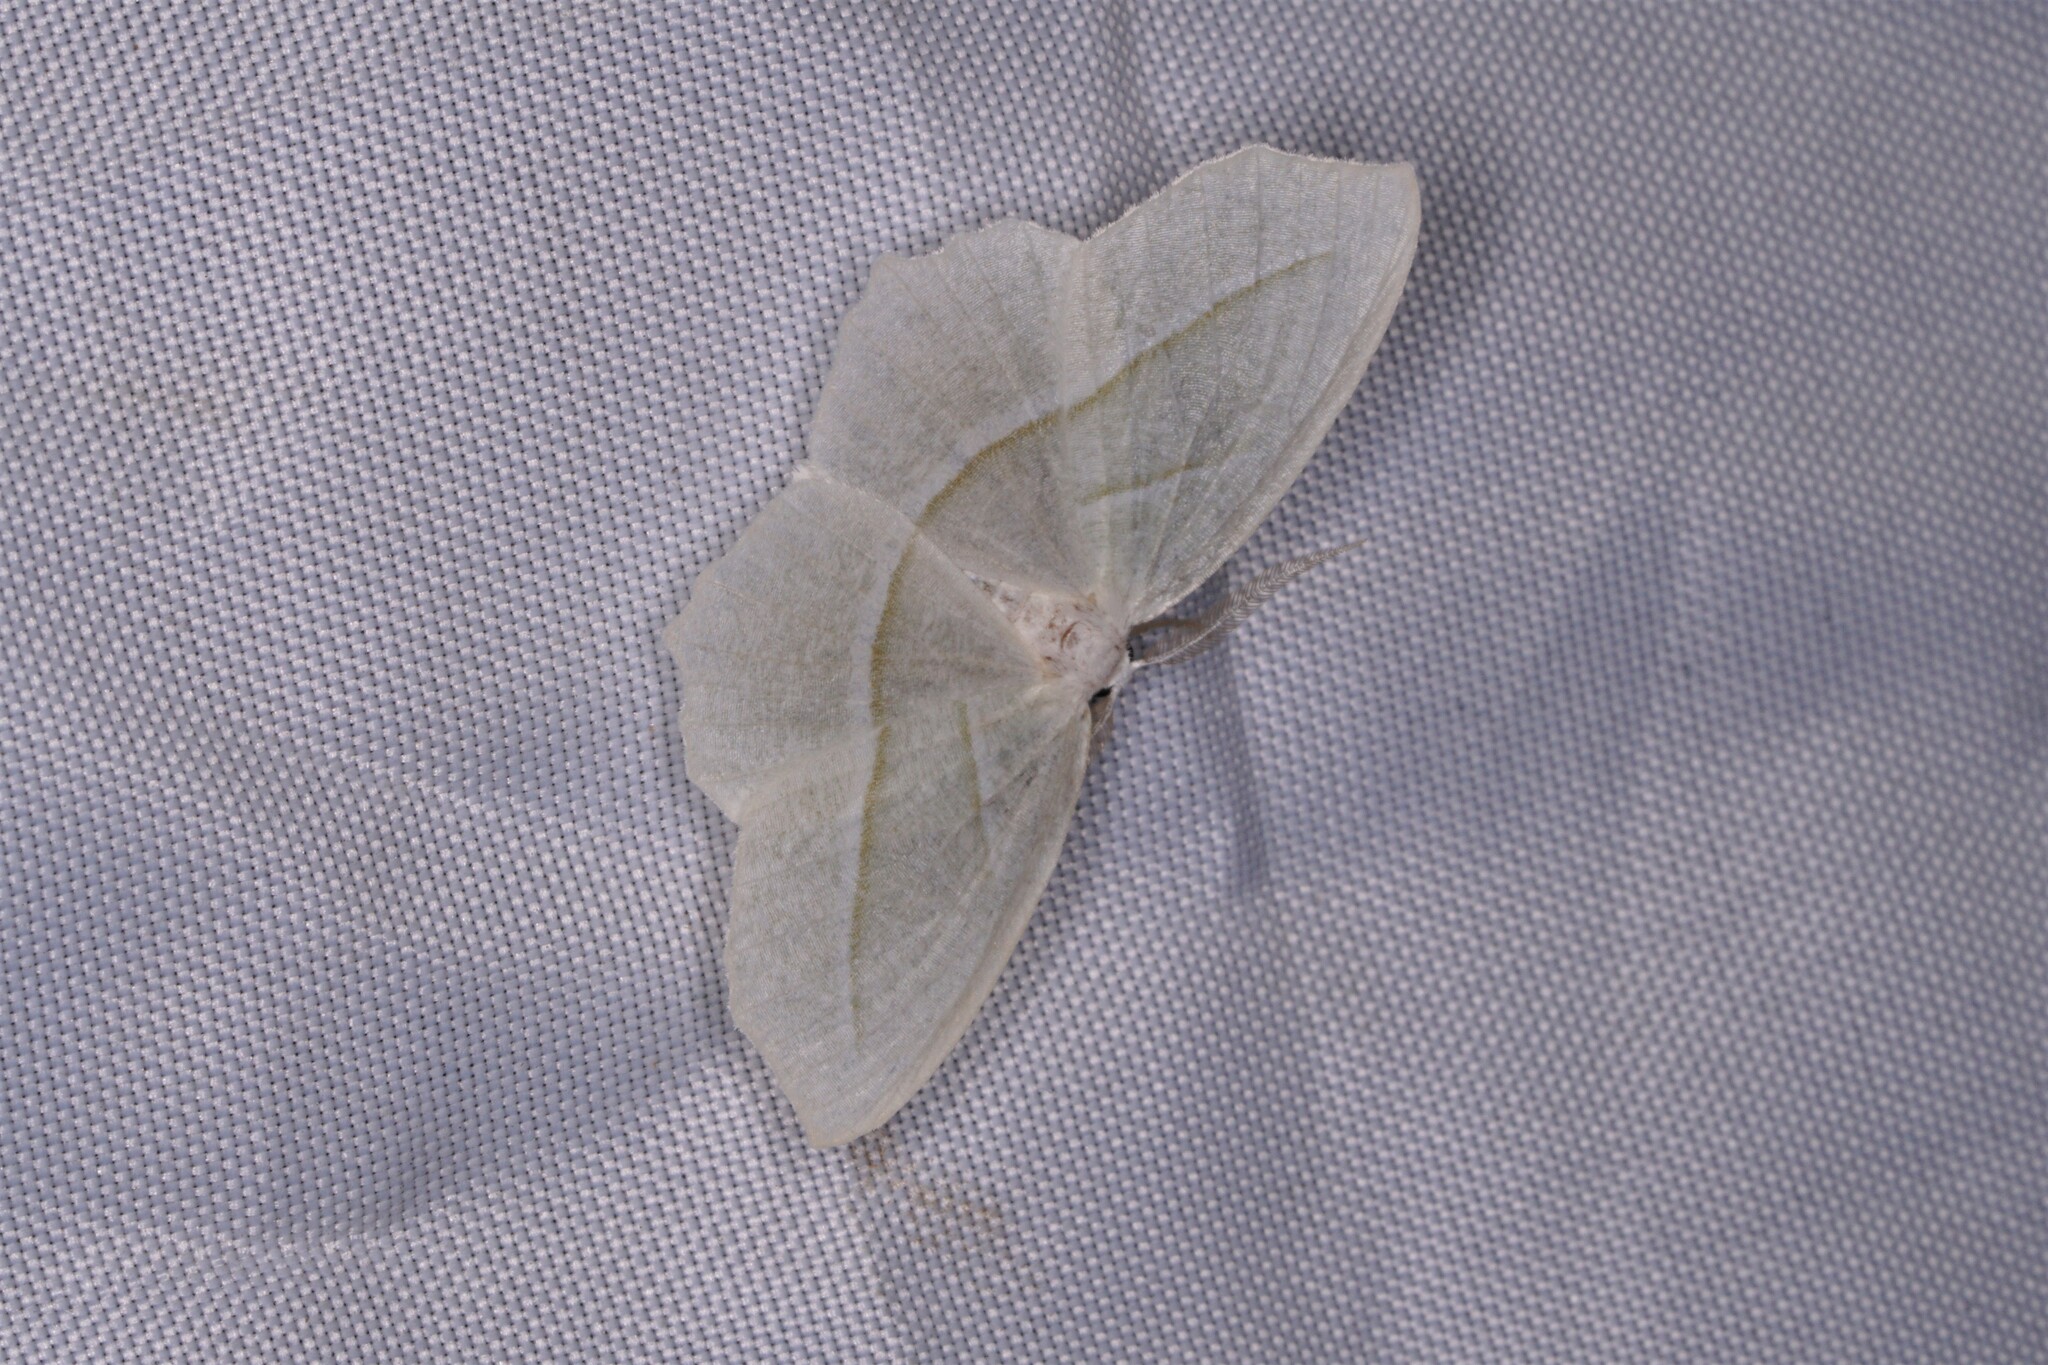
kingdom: Animalia
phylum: Arthropoda
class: Insecta
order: Lepidoptera
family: Geometridae
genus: Campaea
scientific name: Campaea perlata
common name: Fringed looper
